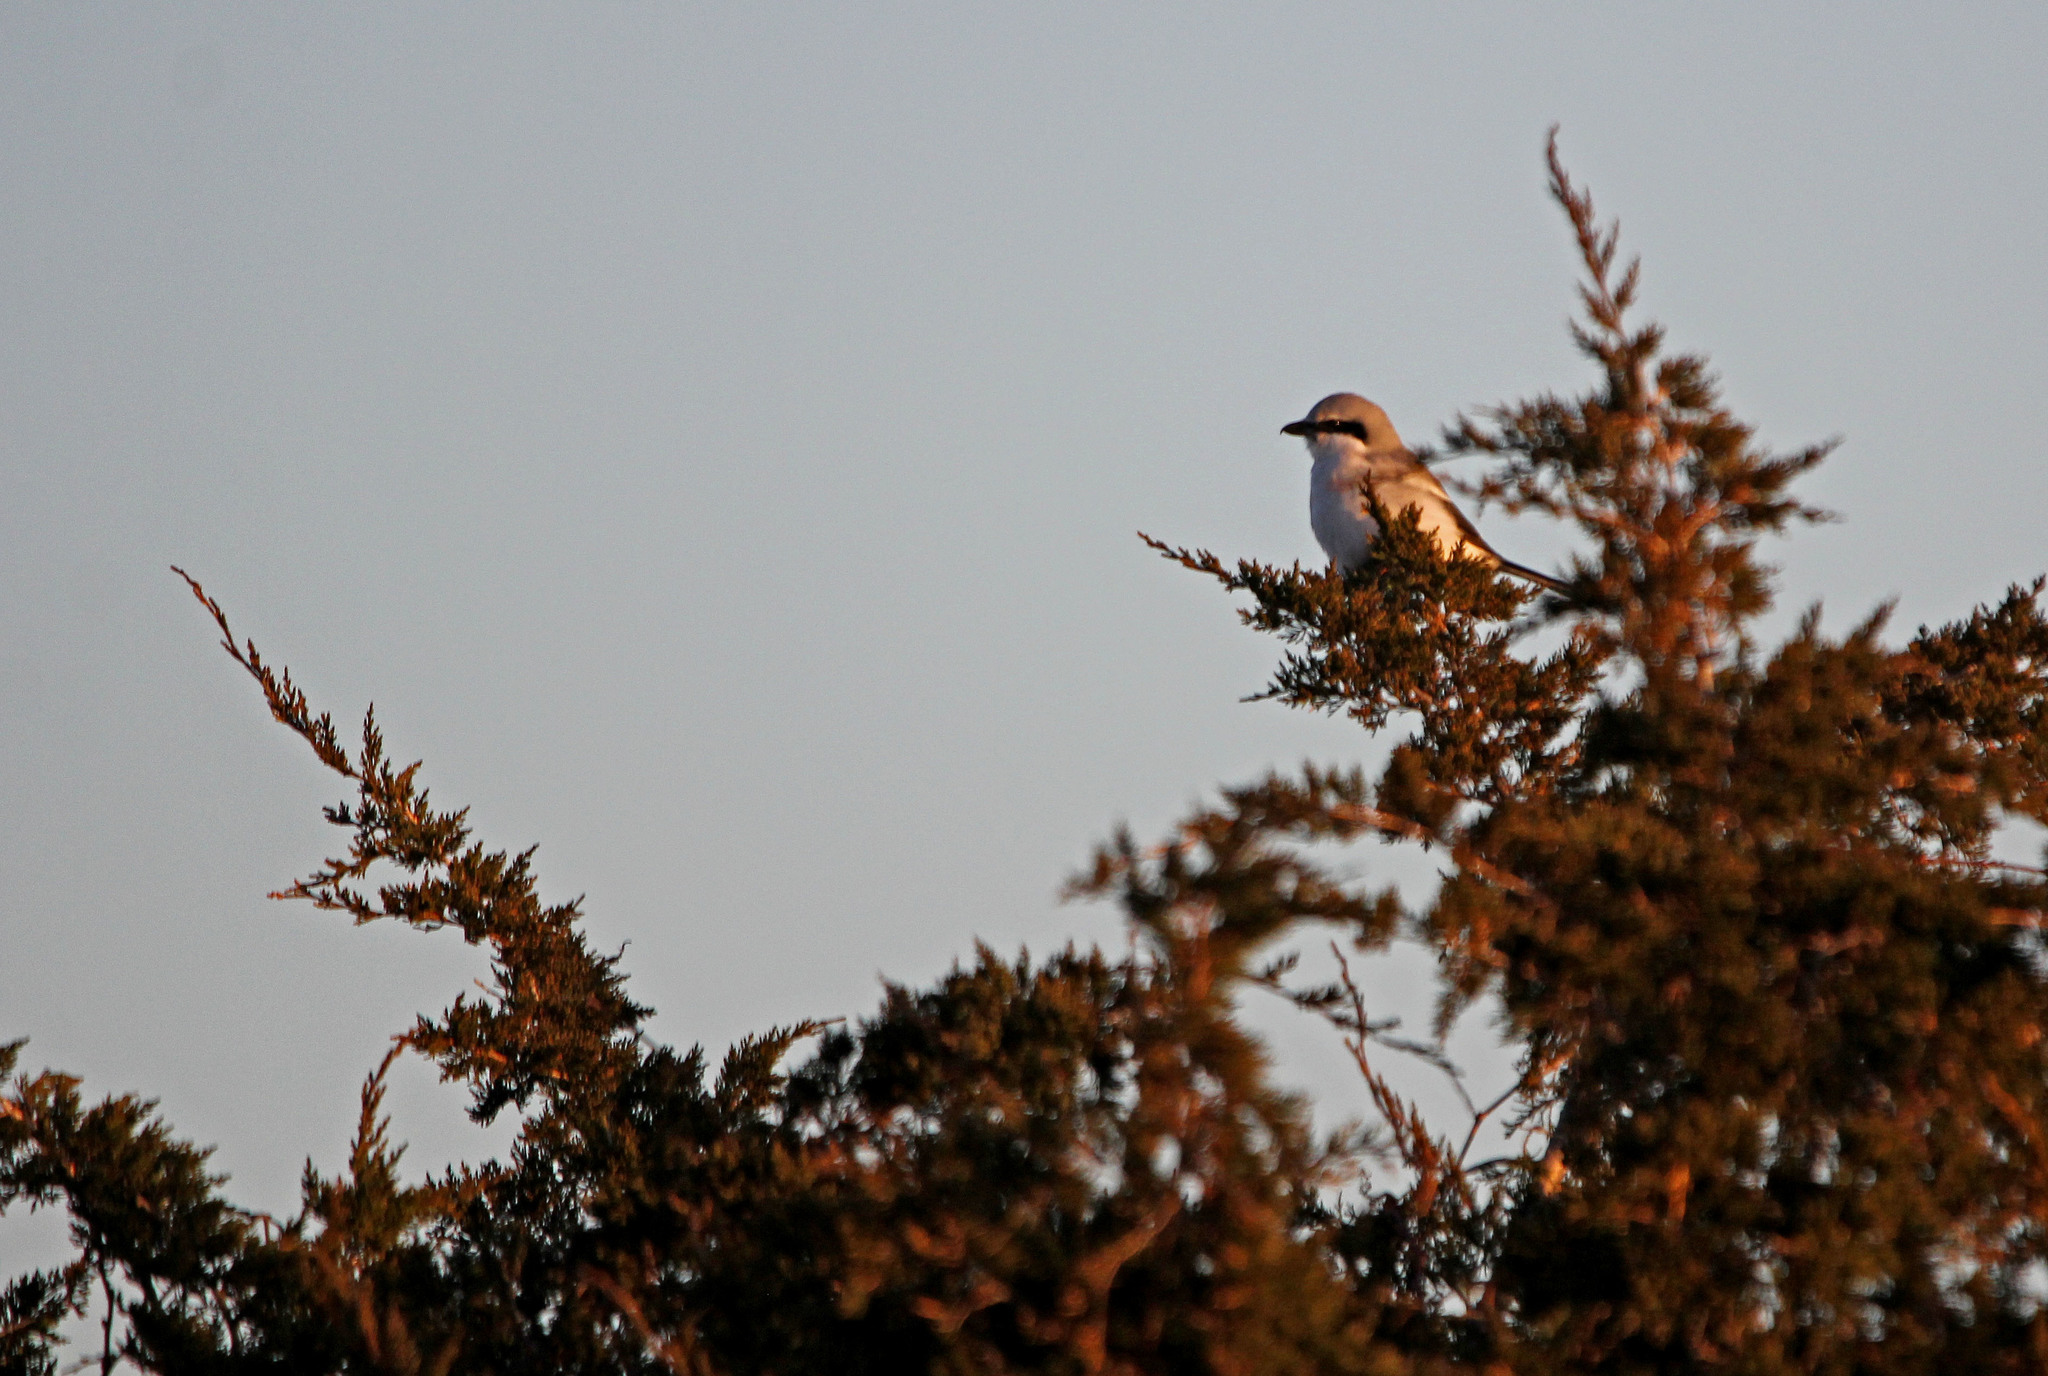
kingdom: Animalia
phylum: Chordata
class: Aves
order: Passeriformes
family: Laniidae
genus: Lanius
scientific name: Lanius borealis
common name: Northern shrike
